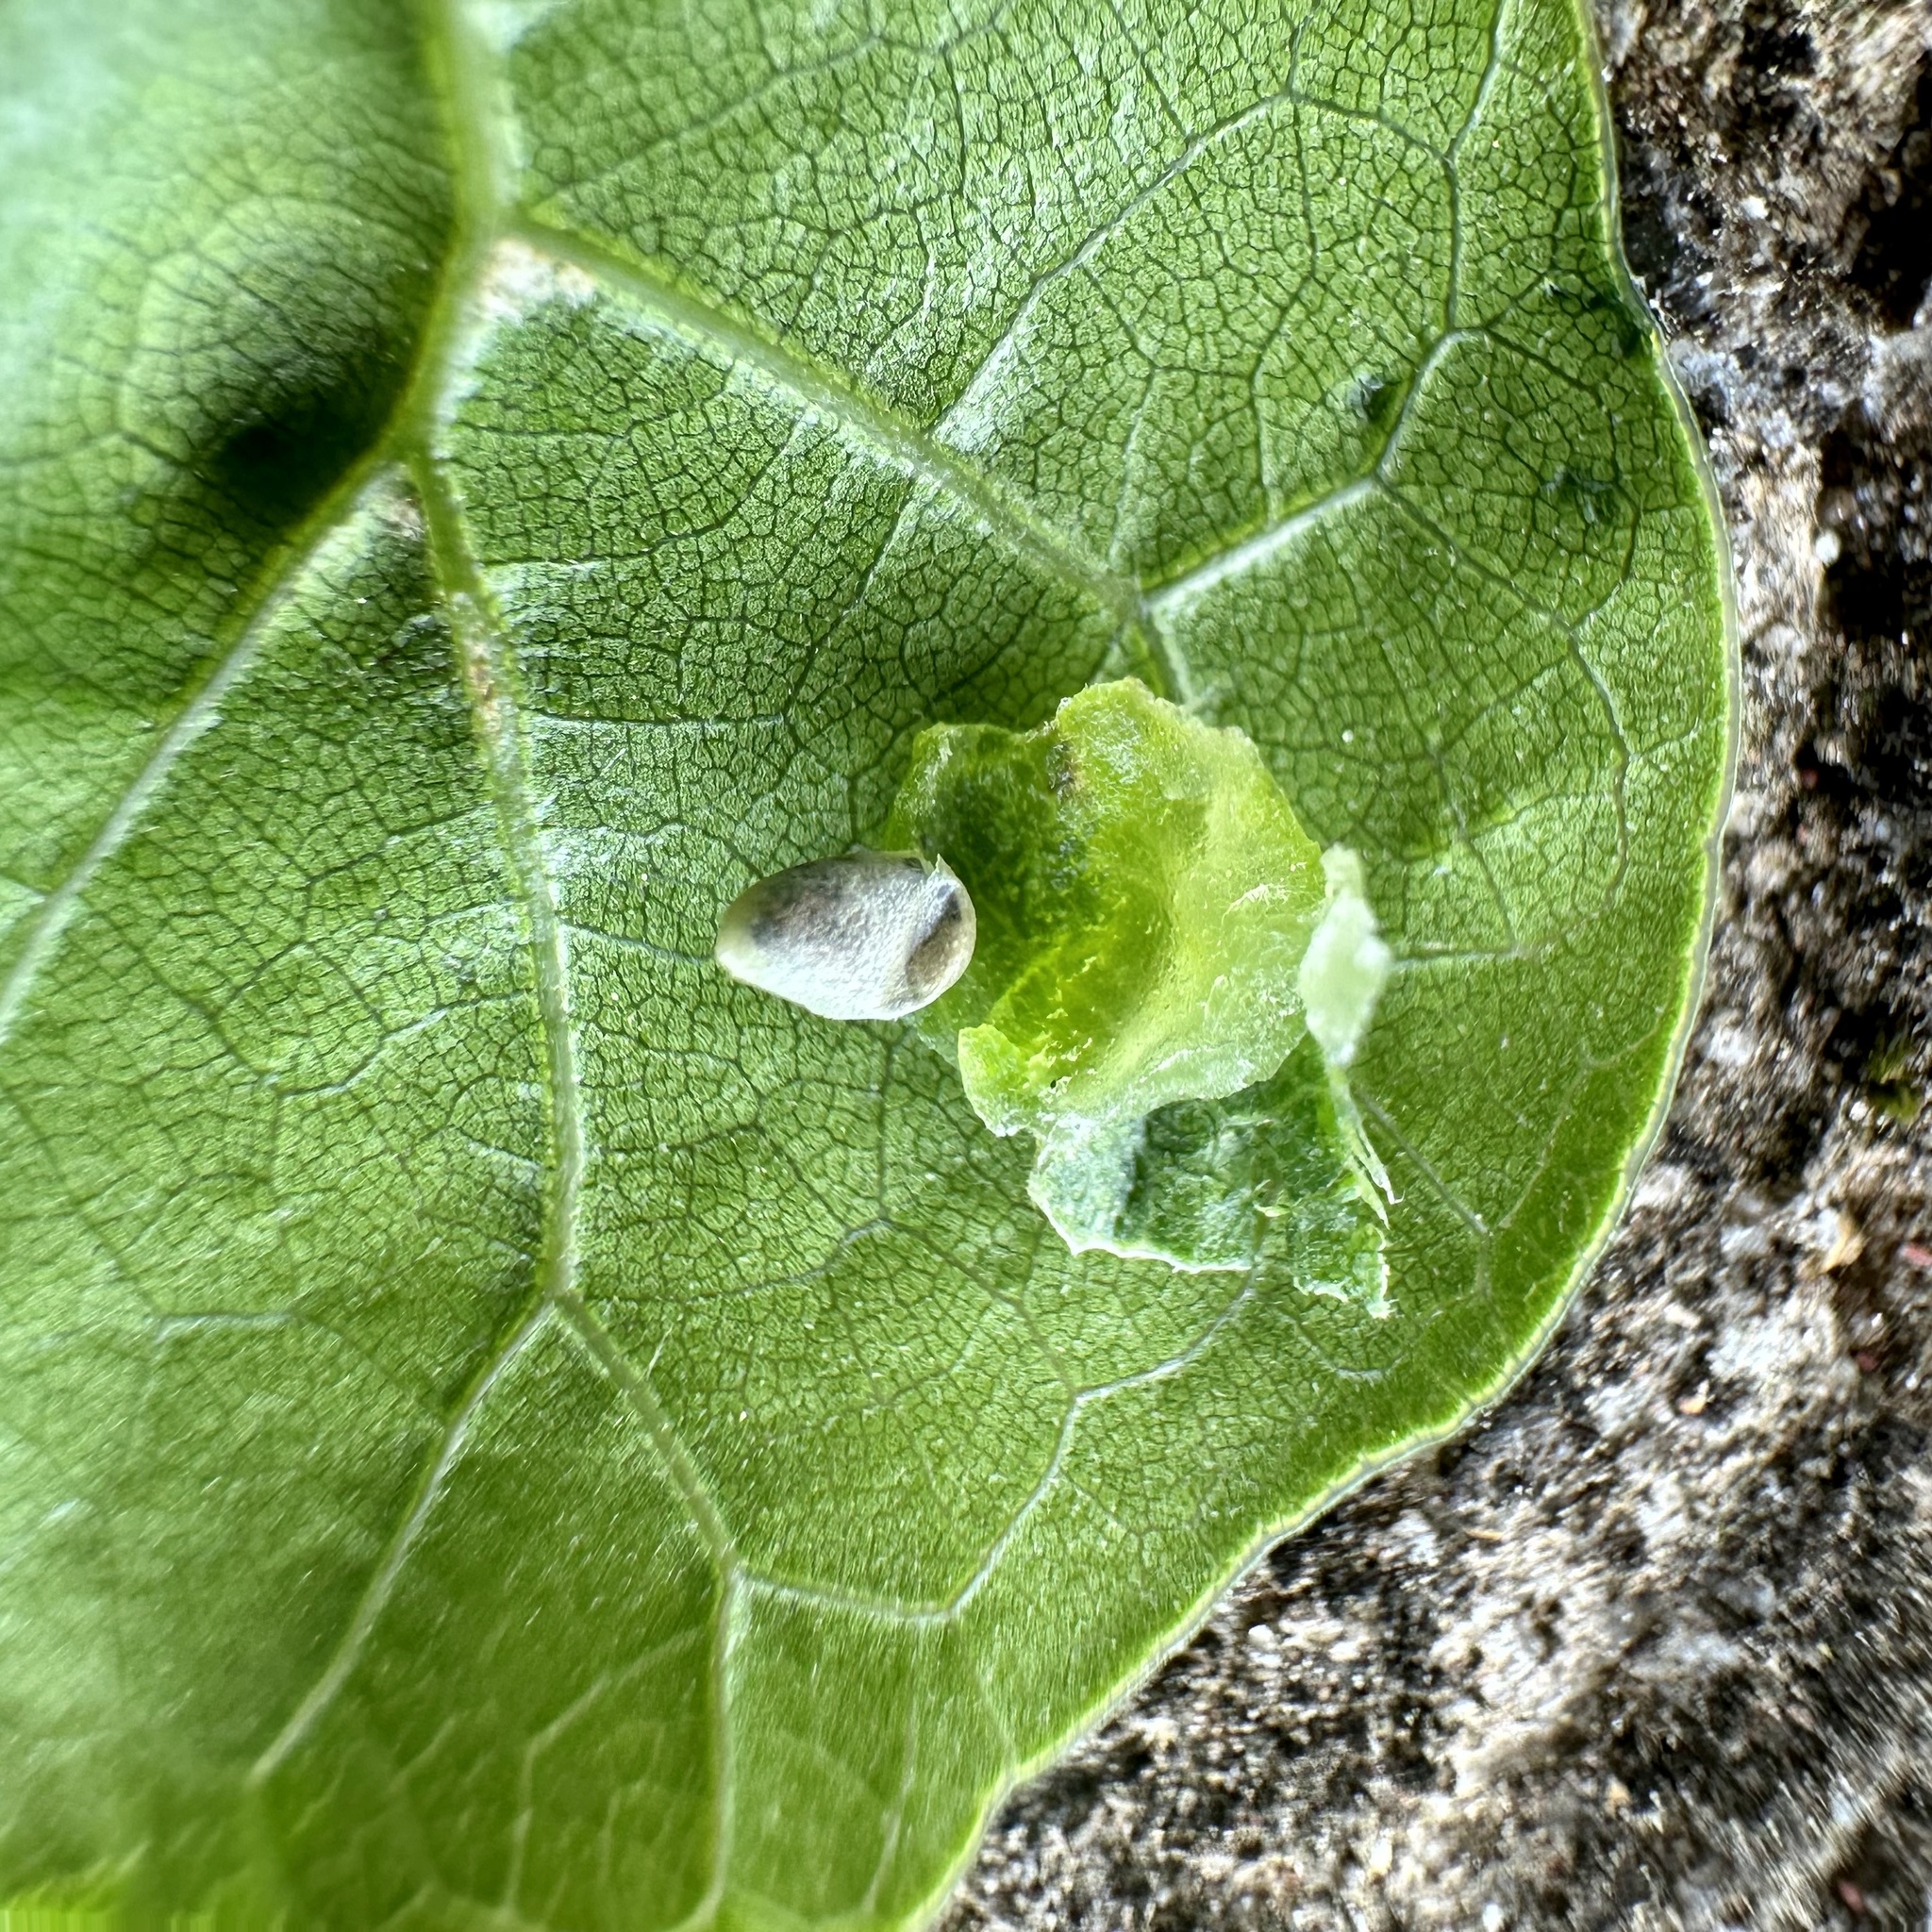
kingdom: Animalia
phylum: Arthropoda
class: Insecta
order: Hymenoptera
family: Cynipidae
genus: Dryocosmus
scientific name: Dryocosmus
